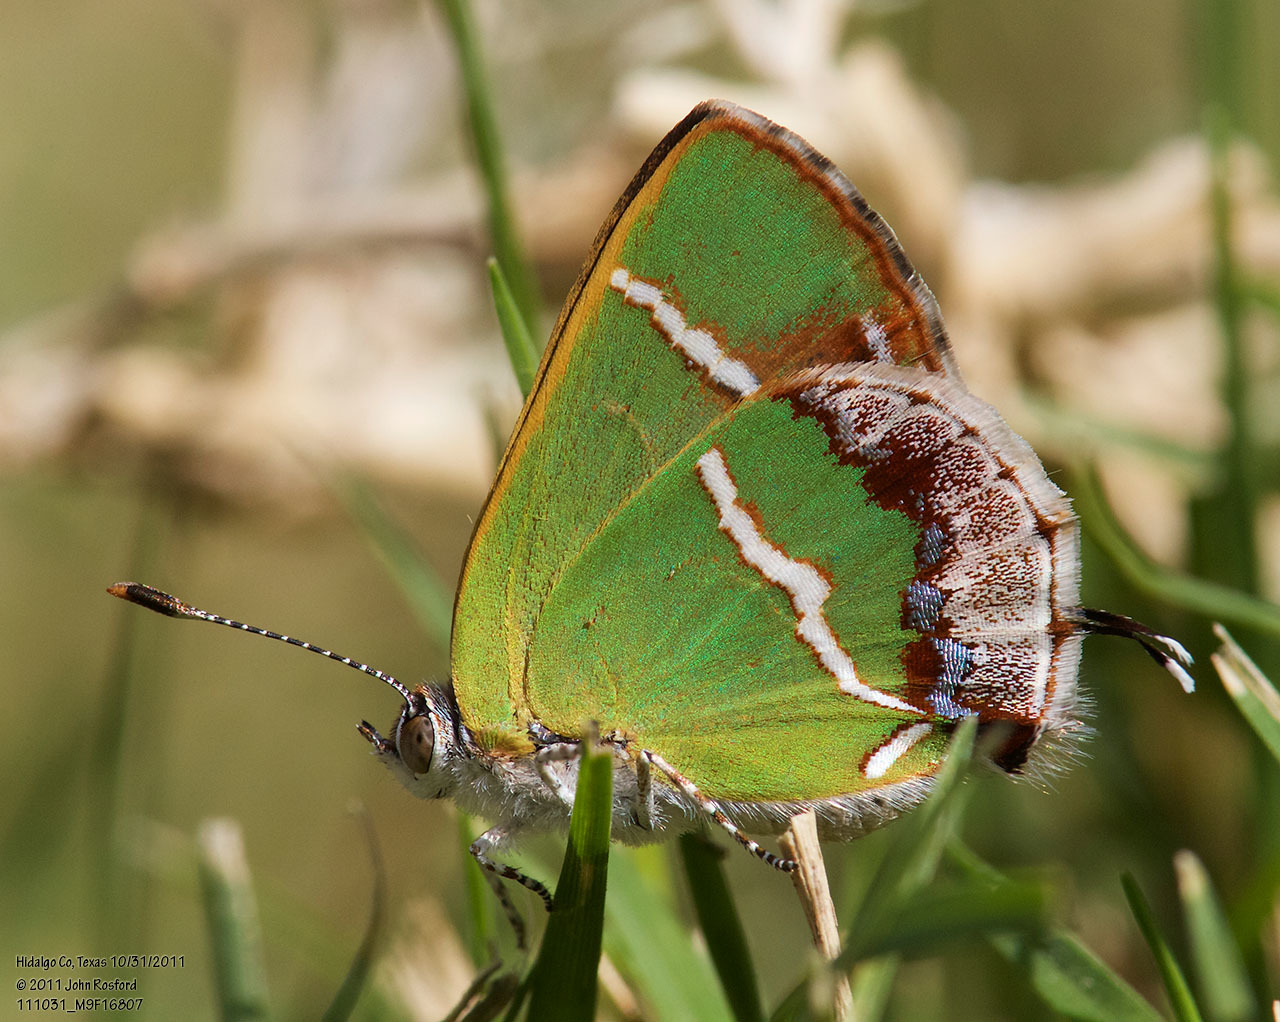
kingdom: Animalia
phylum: Arthropoda
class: Insecta
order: Lepidoptera
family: Lycaenidae
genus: Chlorostrymon
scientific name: Chlorostrymon simaethis
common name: Silver-banded hairstreak
